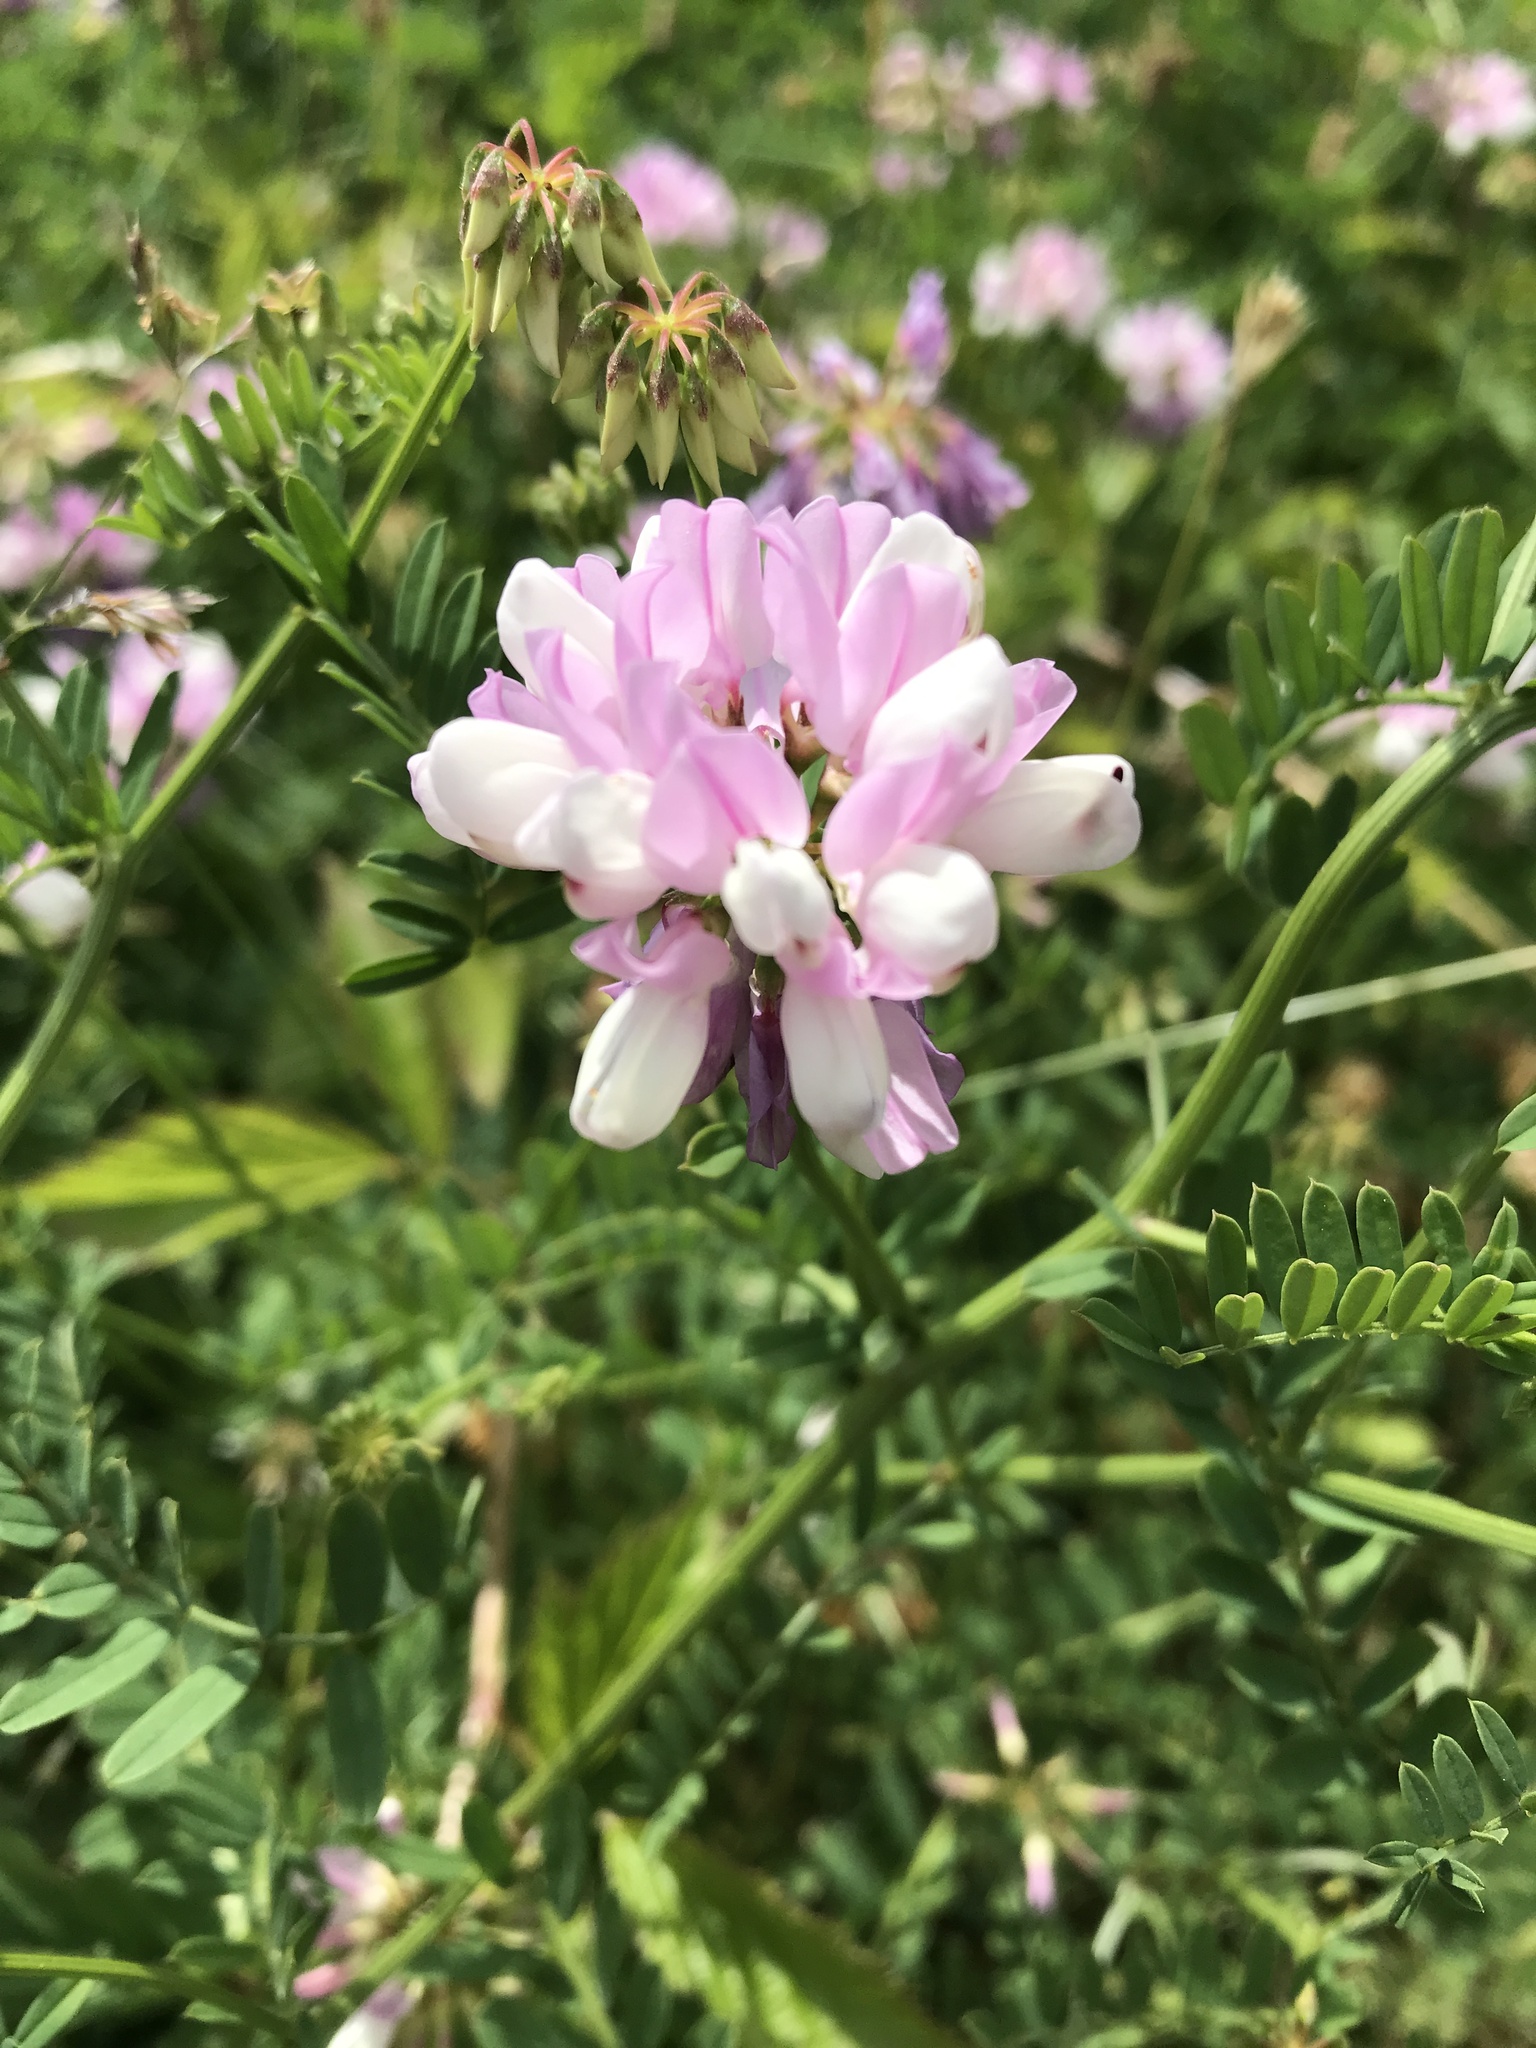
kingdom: Plantae
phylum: Tracheophyta
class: Magnoliopsida
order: Fabales
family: Fabaceae
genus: Coronilla
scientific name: Coronilla varia
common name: Crownvetch
